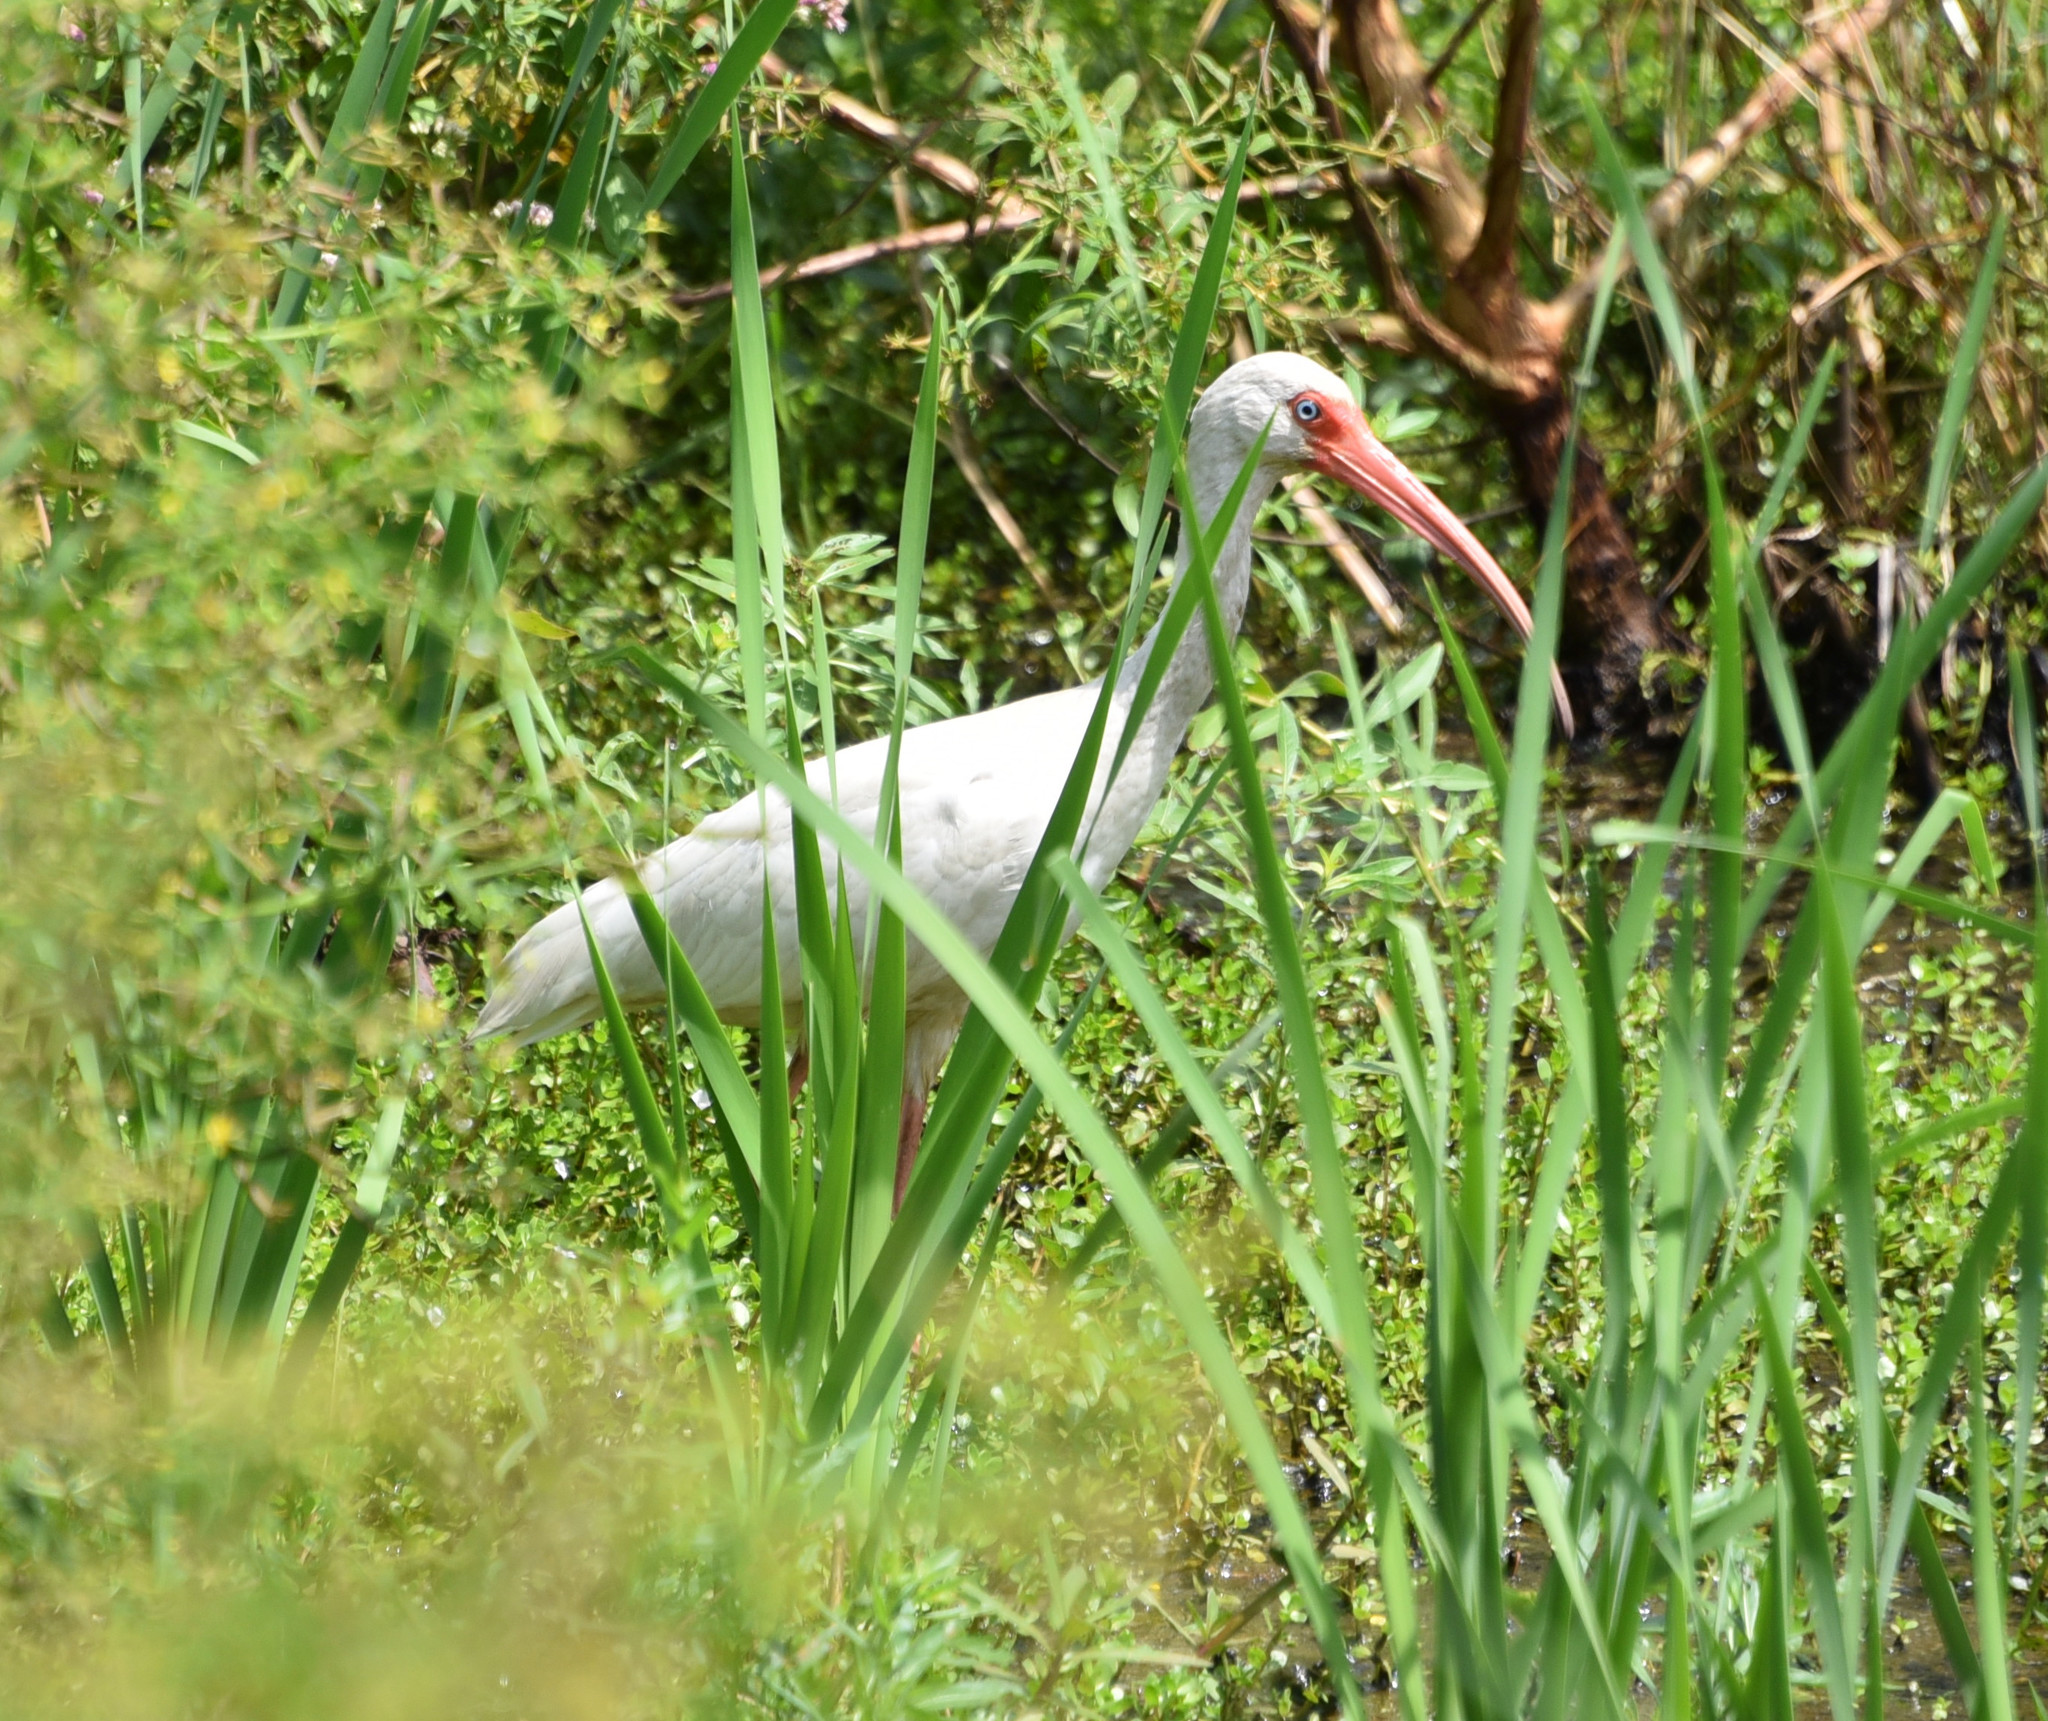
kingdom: Animalia
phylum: Chordata
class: Aves
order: Pelecaniformes
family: Threskiornithidae
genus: Eudocimus
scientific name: Eudocimus albus
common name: White ibis
